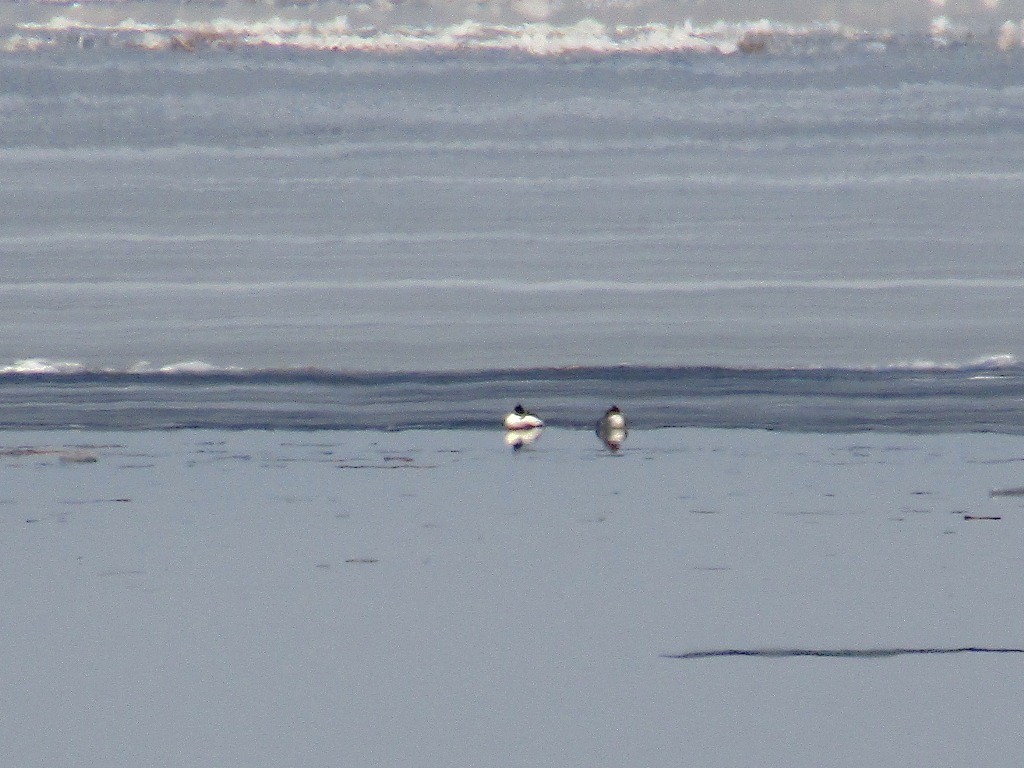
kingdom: Animalia
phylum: Chordata
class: Aves
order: Anseriformes
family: Anatidae
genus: Mergus
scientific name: Mergus merganser
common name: Common merganser
